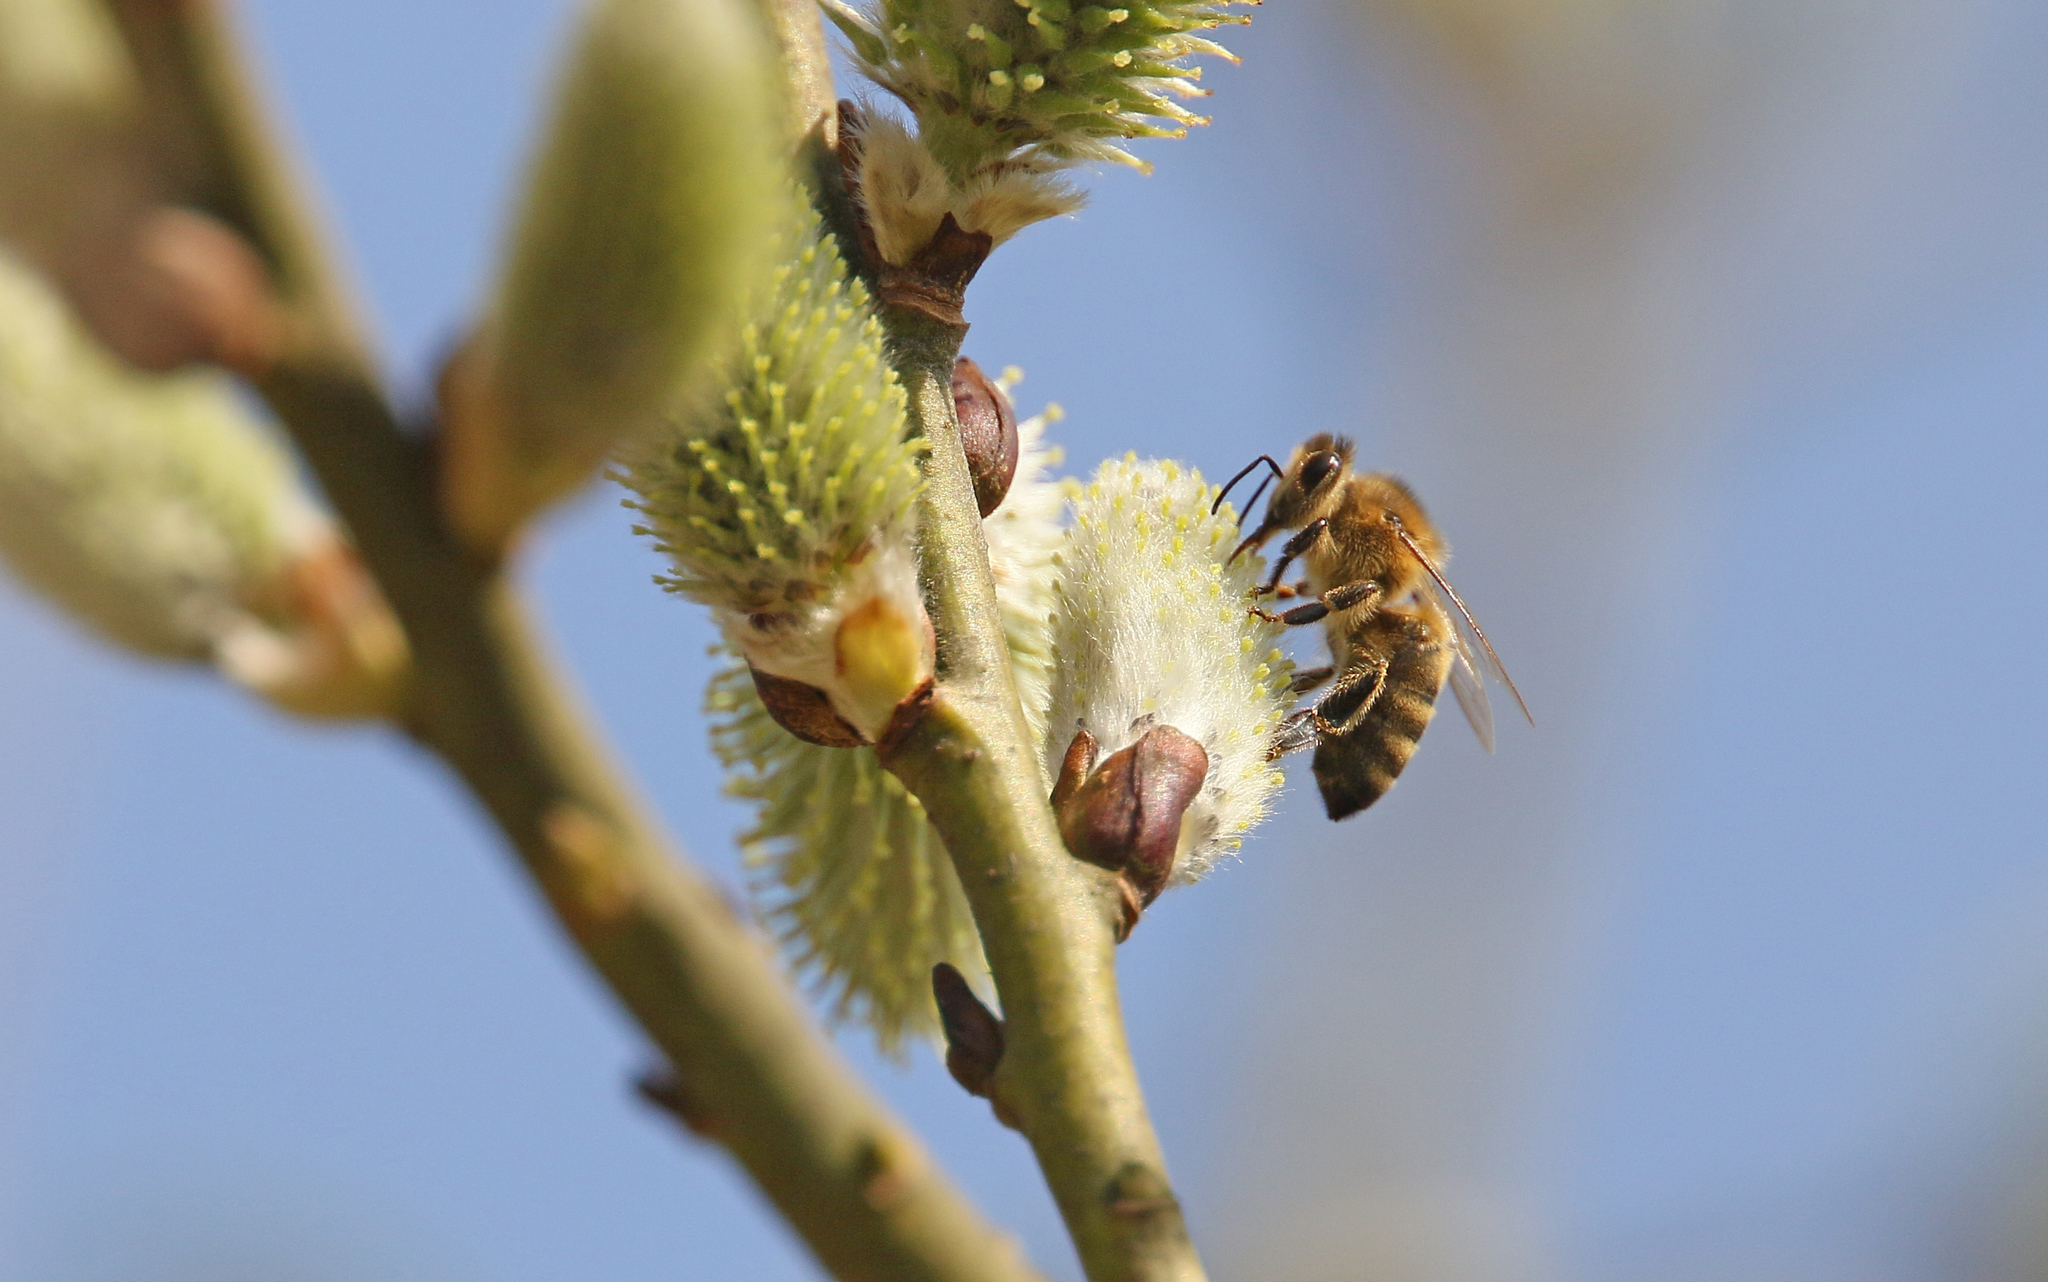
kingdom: Animalia
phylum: Arthropoda
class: Insecta
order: Hymenoptera
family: Apidae
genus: Apis
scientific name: Apis mellifera
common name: Honey bee
